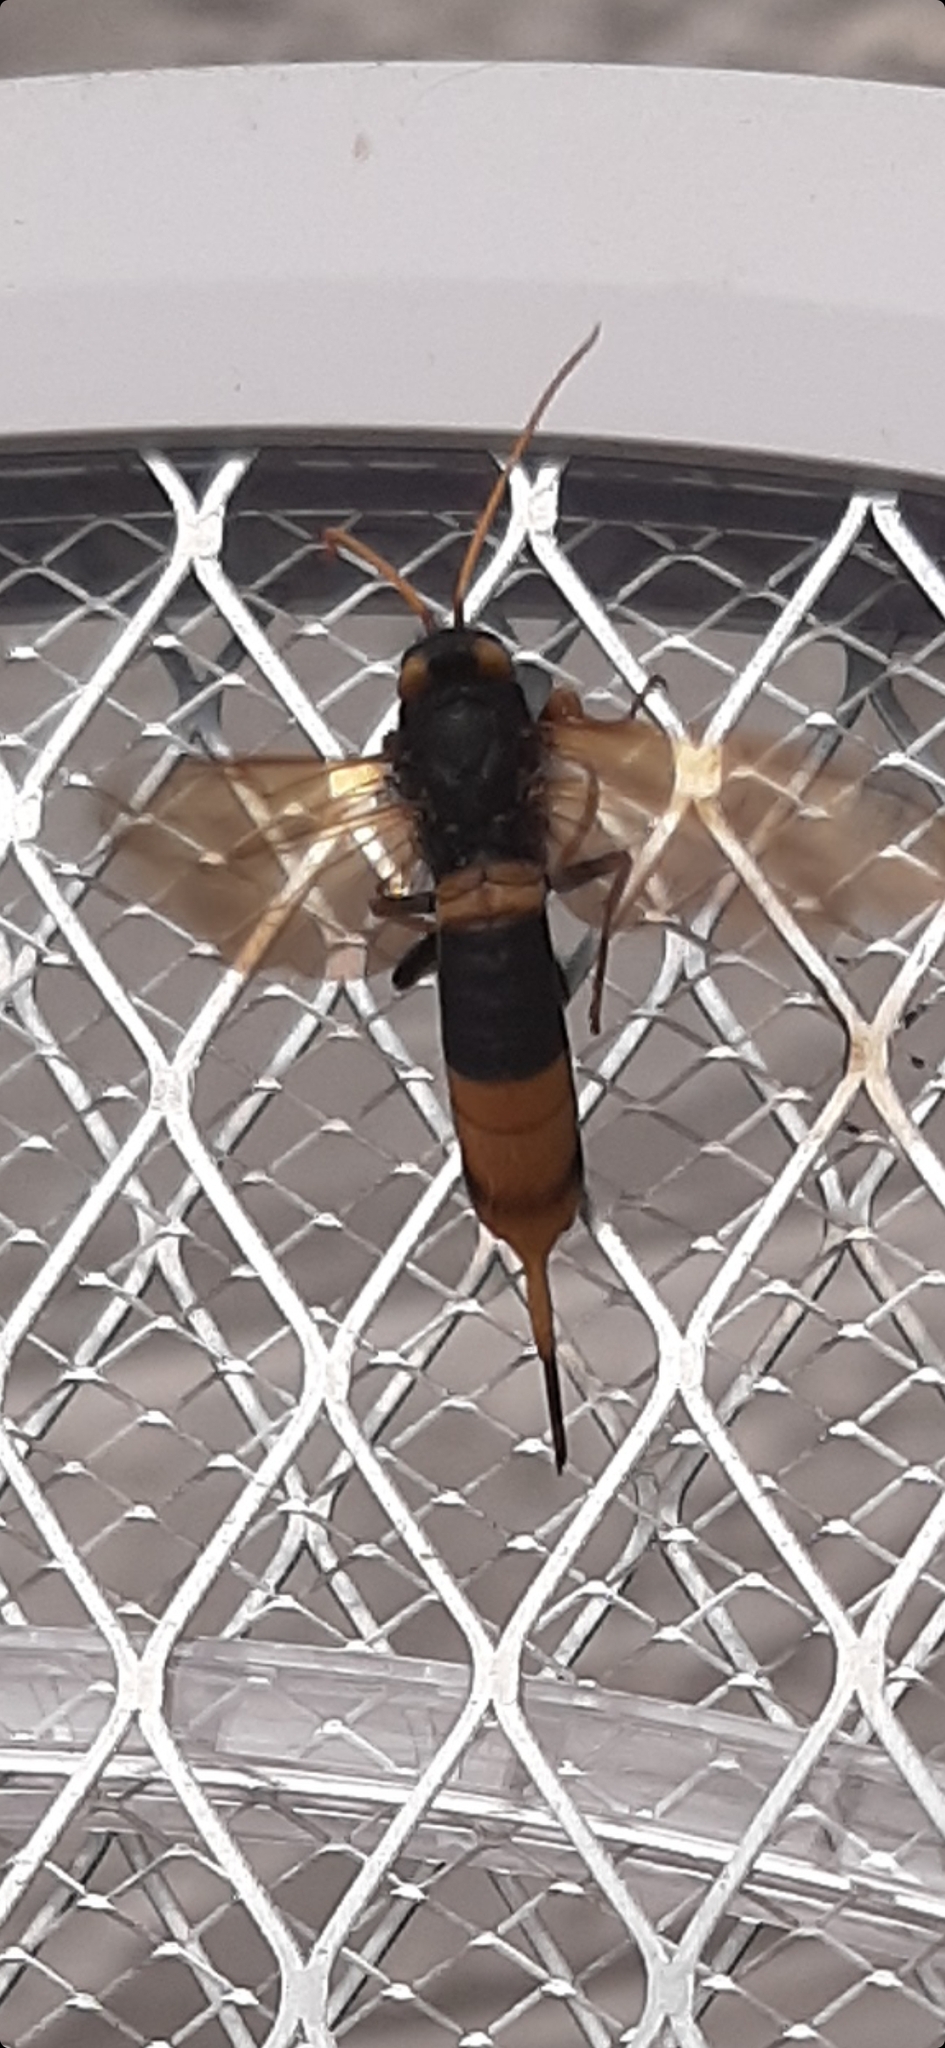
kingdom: Animalia
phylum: Arthropoda
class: Insecta
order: Hymenoptera
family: Siricidae
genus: Urocerus
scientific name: Urocerus gigas
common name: Giant woodwasp
